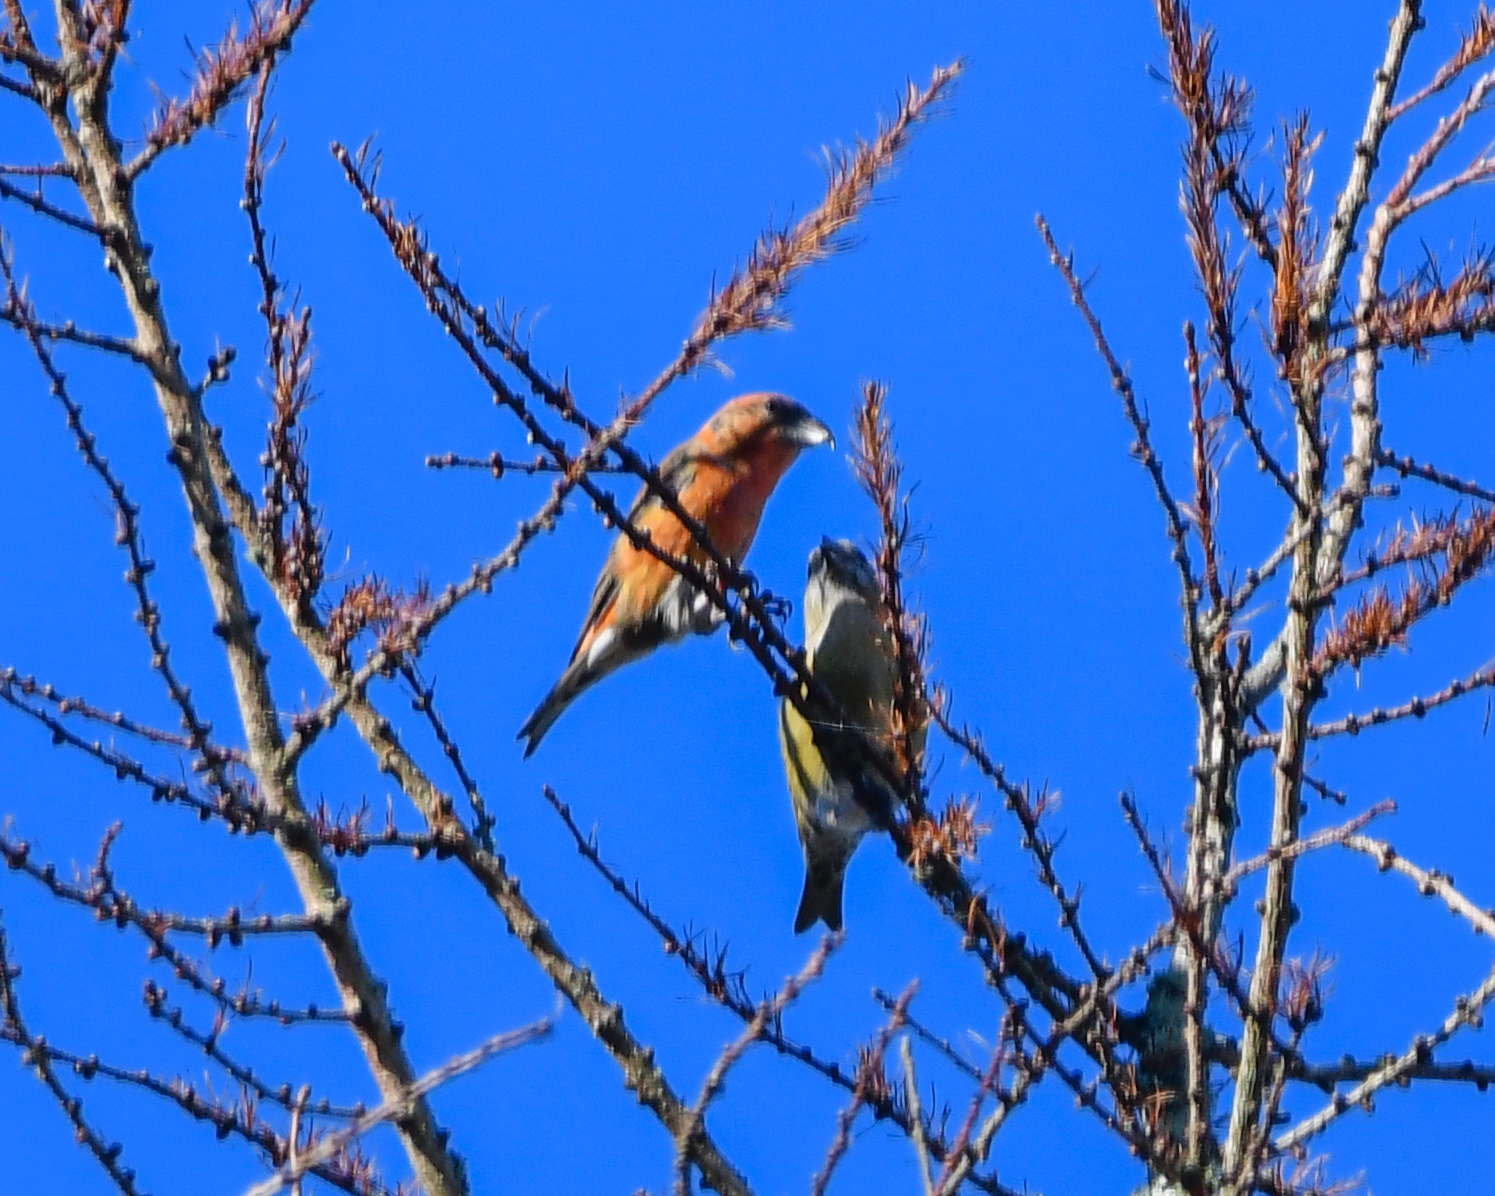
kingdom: Animalia
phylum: Chordata
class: Aves
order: Passeriformes
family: Fringillidae
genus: Loxia
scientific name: Loxia curvirostra
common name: Red crossbill
